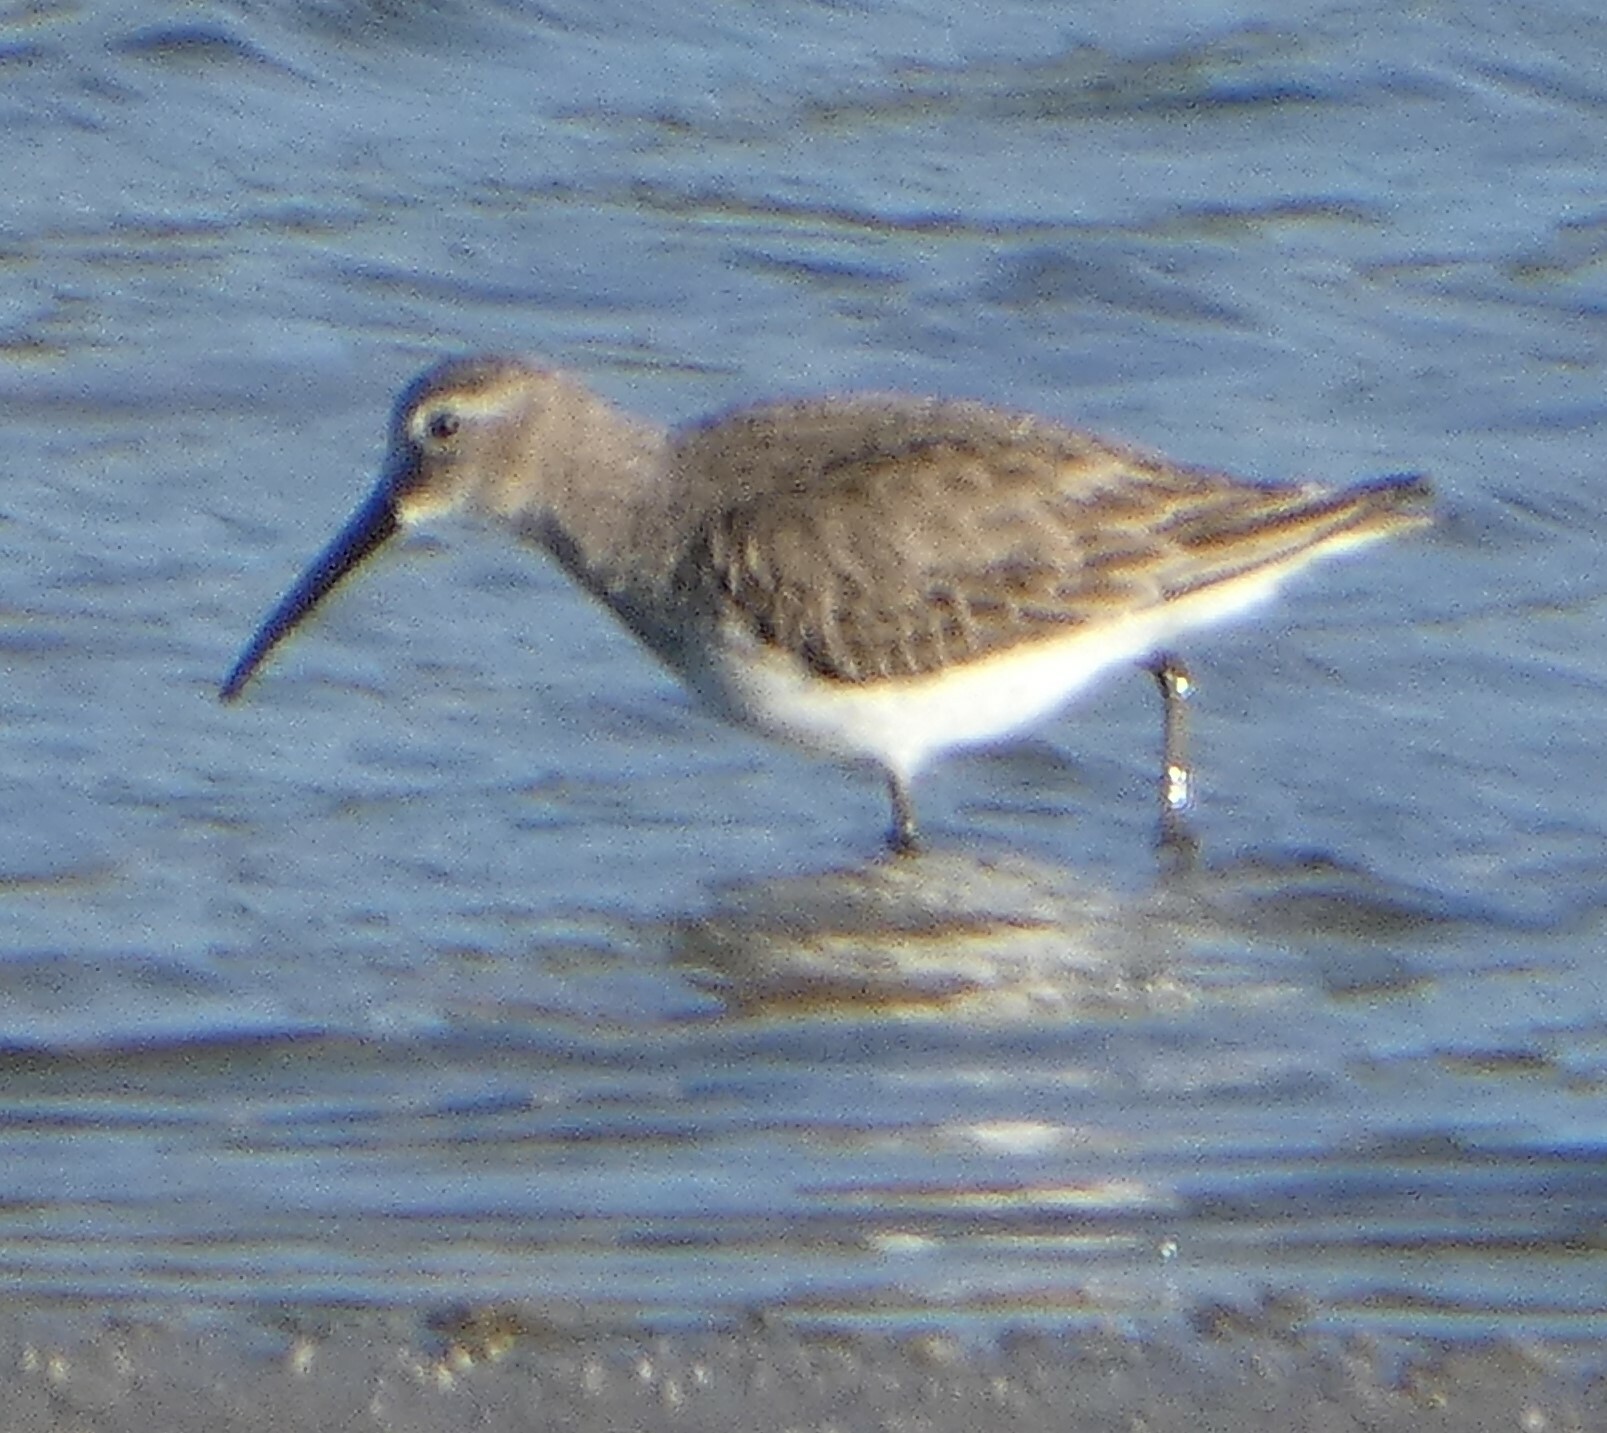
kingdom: Animalia
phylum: Chordata
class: Aves
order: Charadriiformes
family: Scolopacidae
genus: Calidris
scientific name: Calidris alpina
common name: Dunlin
